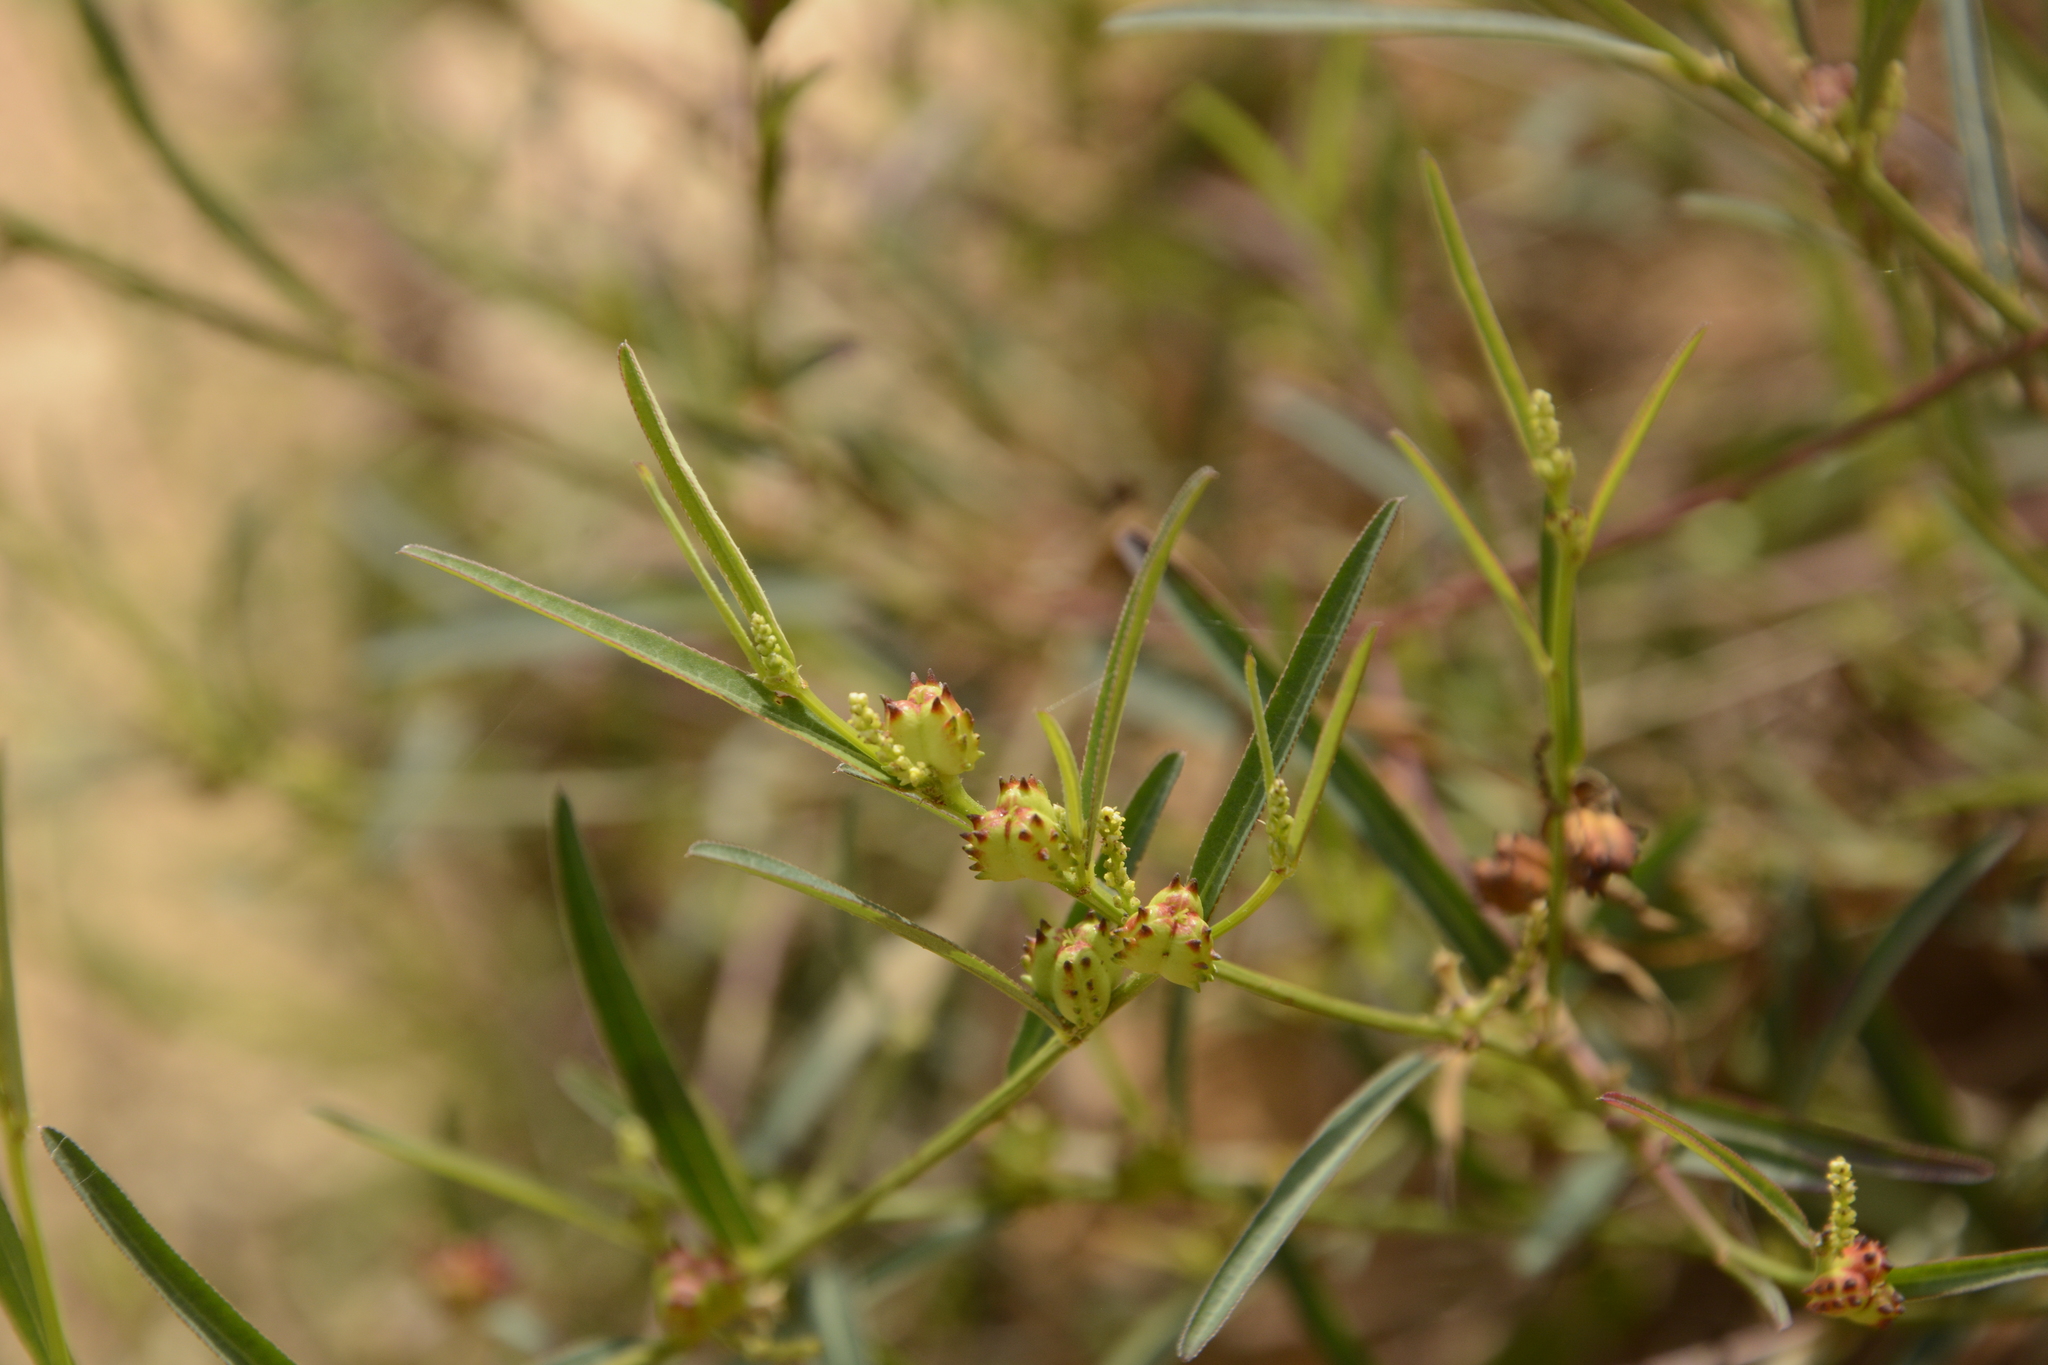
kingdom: Plantae
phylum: Tracheophyta
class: Magnoliopsida
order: Malpighiales
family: Euphorbiaceae
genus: Microstachys
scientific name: Microstachys chamaelea
